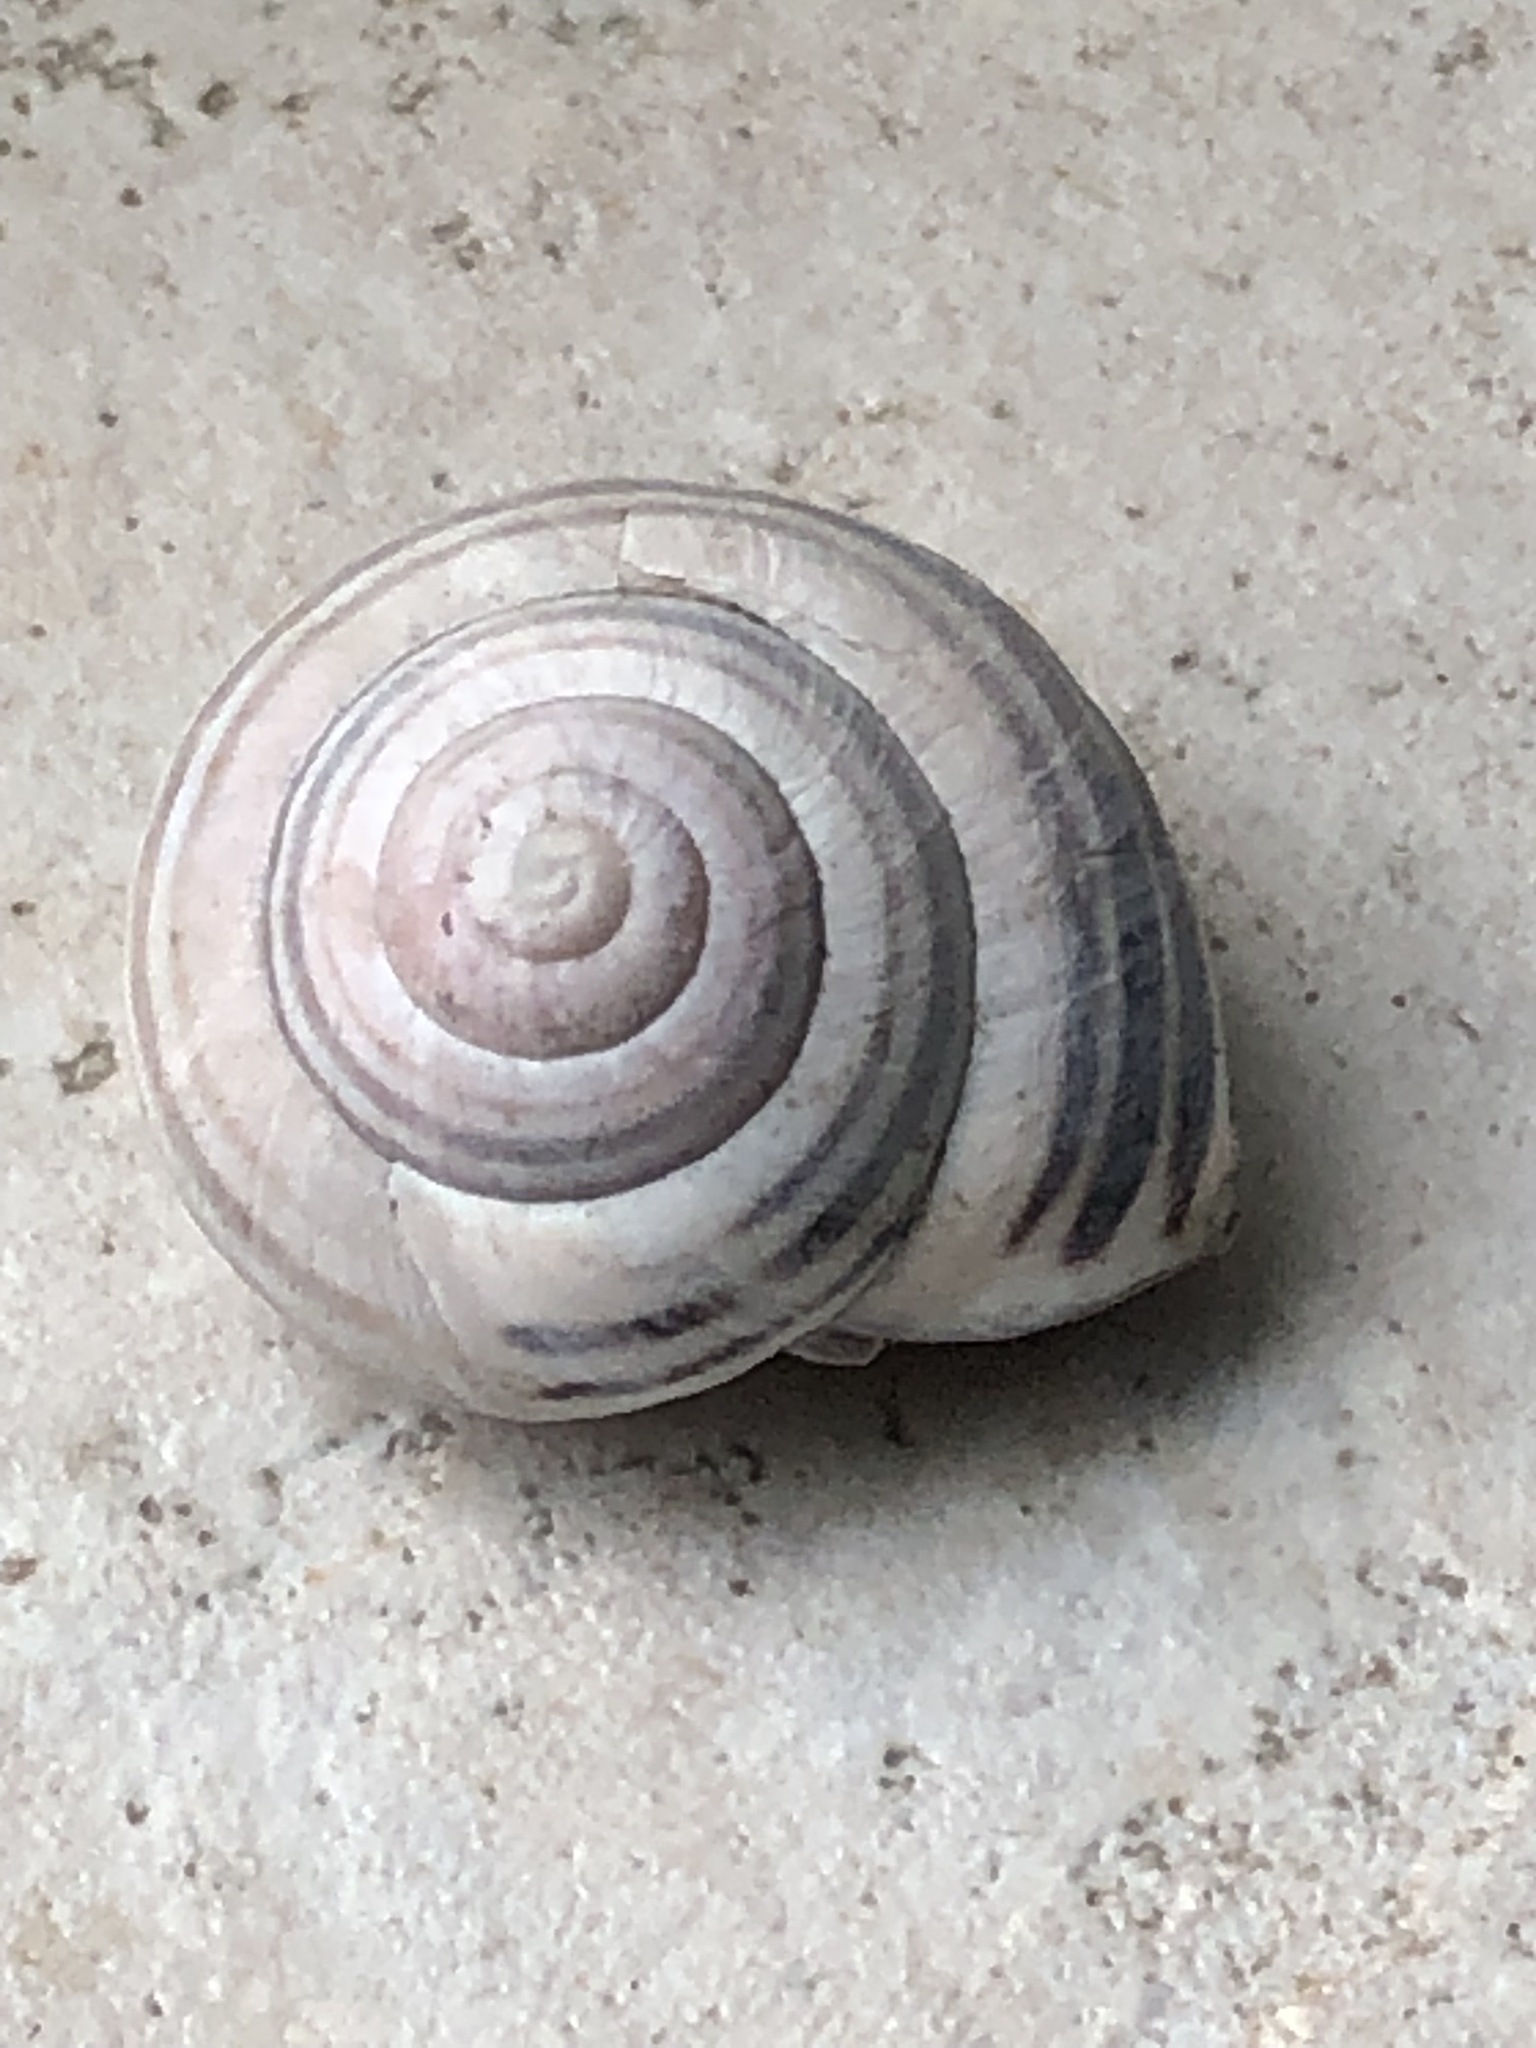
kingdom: Animalia
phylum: Mollusca
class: Gastropoda
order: Stylommatophora
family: Helicidae
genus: Cepaea
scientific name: Cepaea nemoralis
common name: Grovesnail
